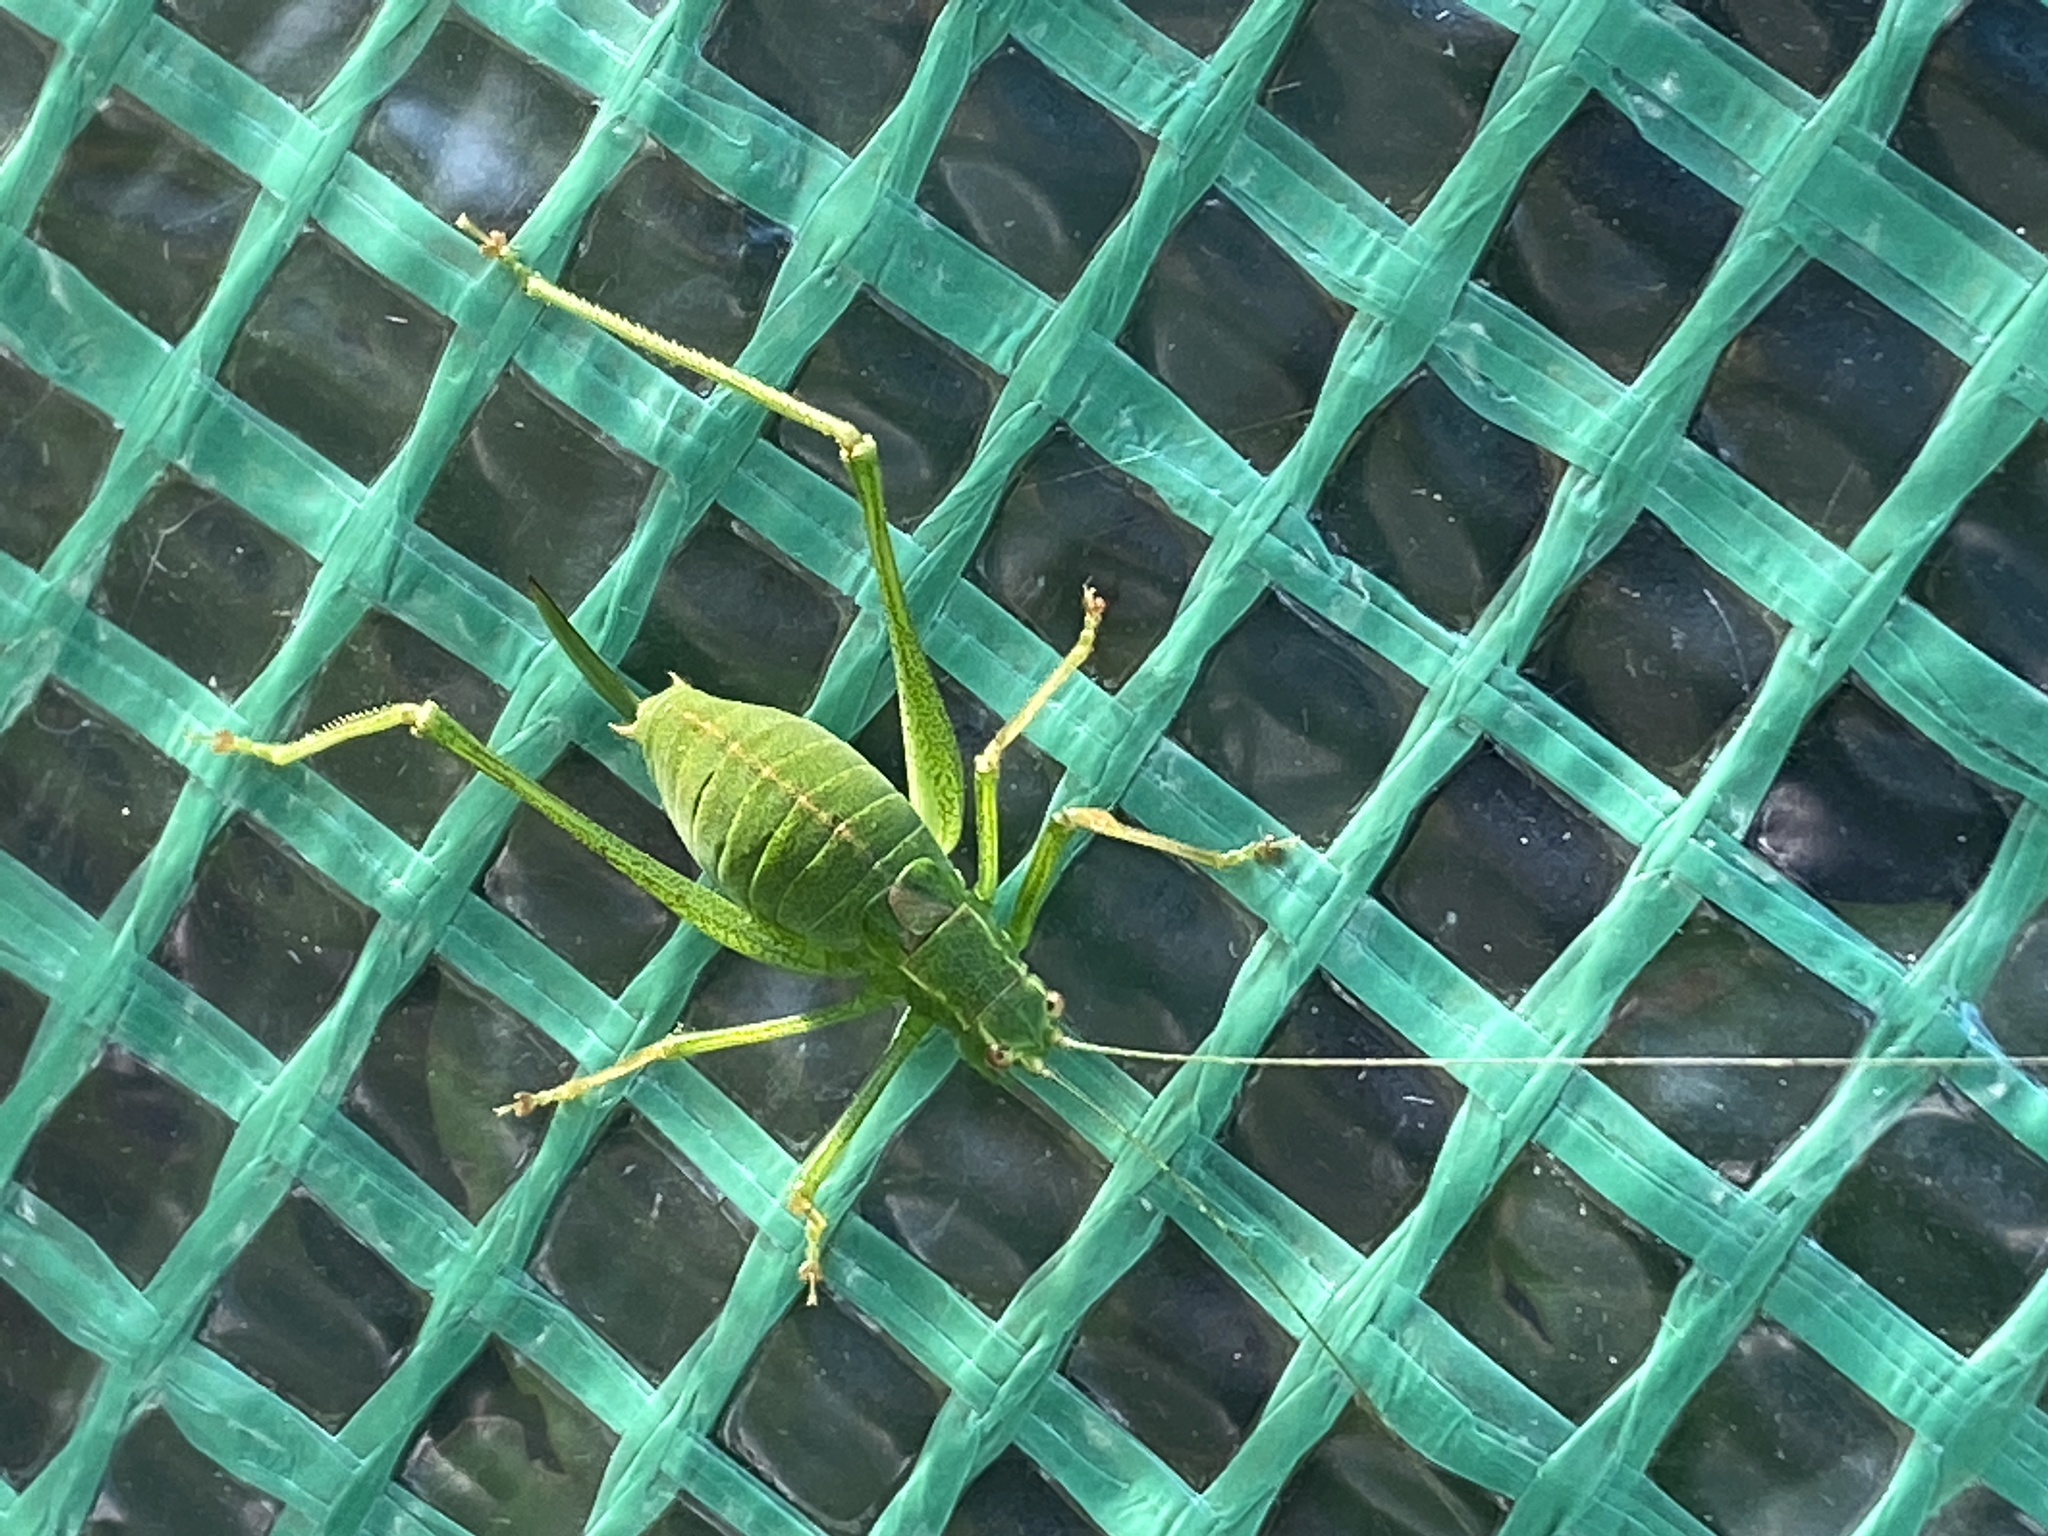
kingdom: Animalia
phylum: Arthropoda
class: Insecta
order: Orthoptera
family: Tettigoniidae
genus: Leptophyes
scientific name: Leptophyes punctatissima
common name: Speckled bush-cricket
